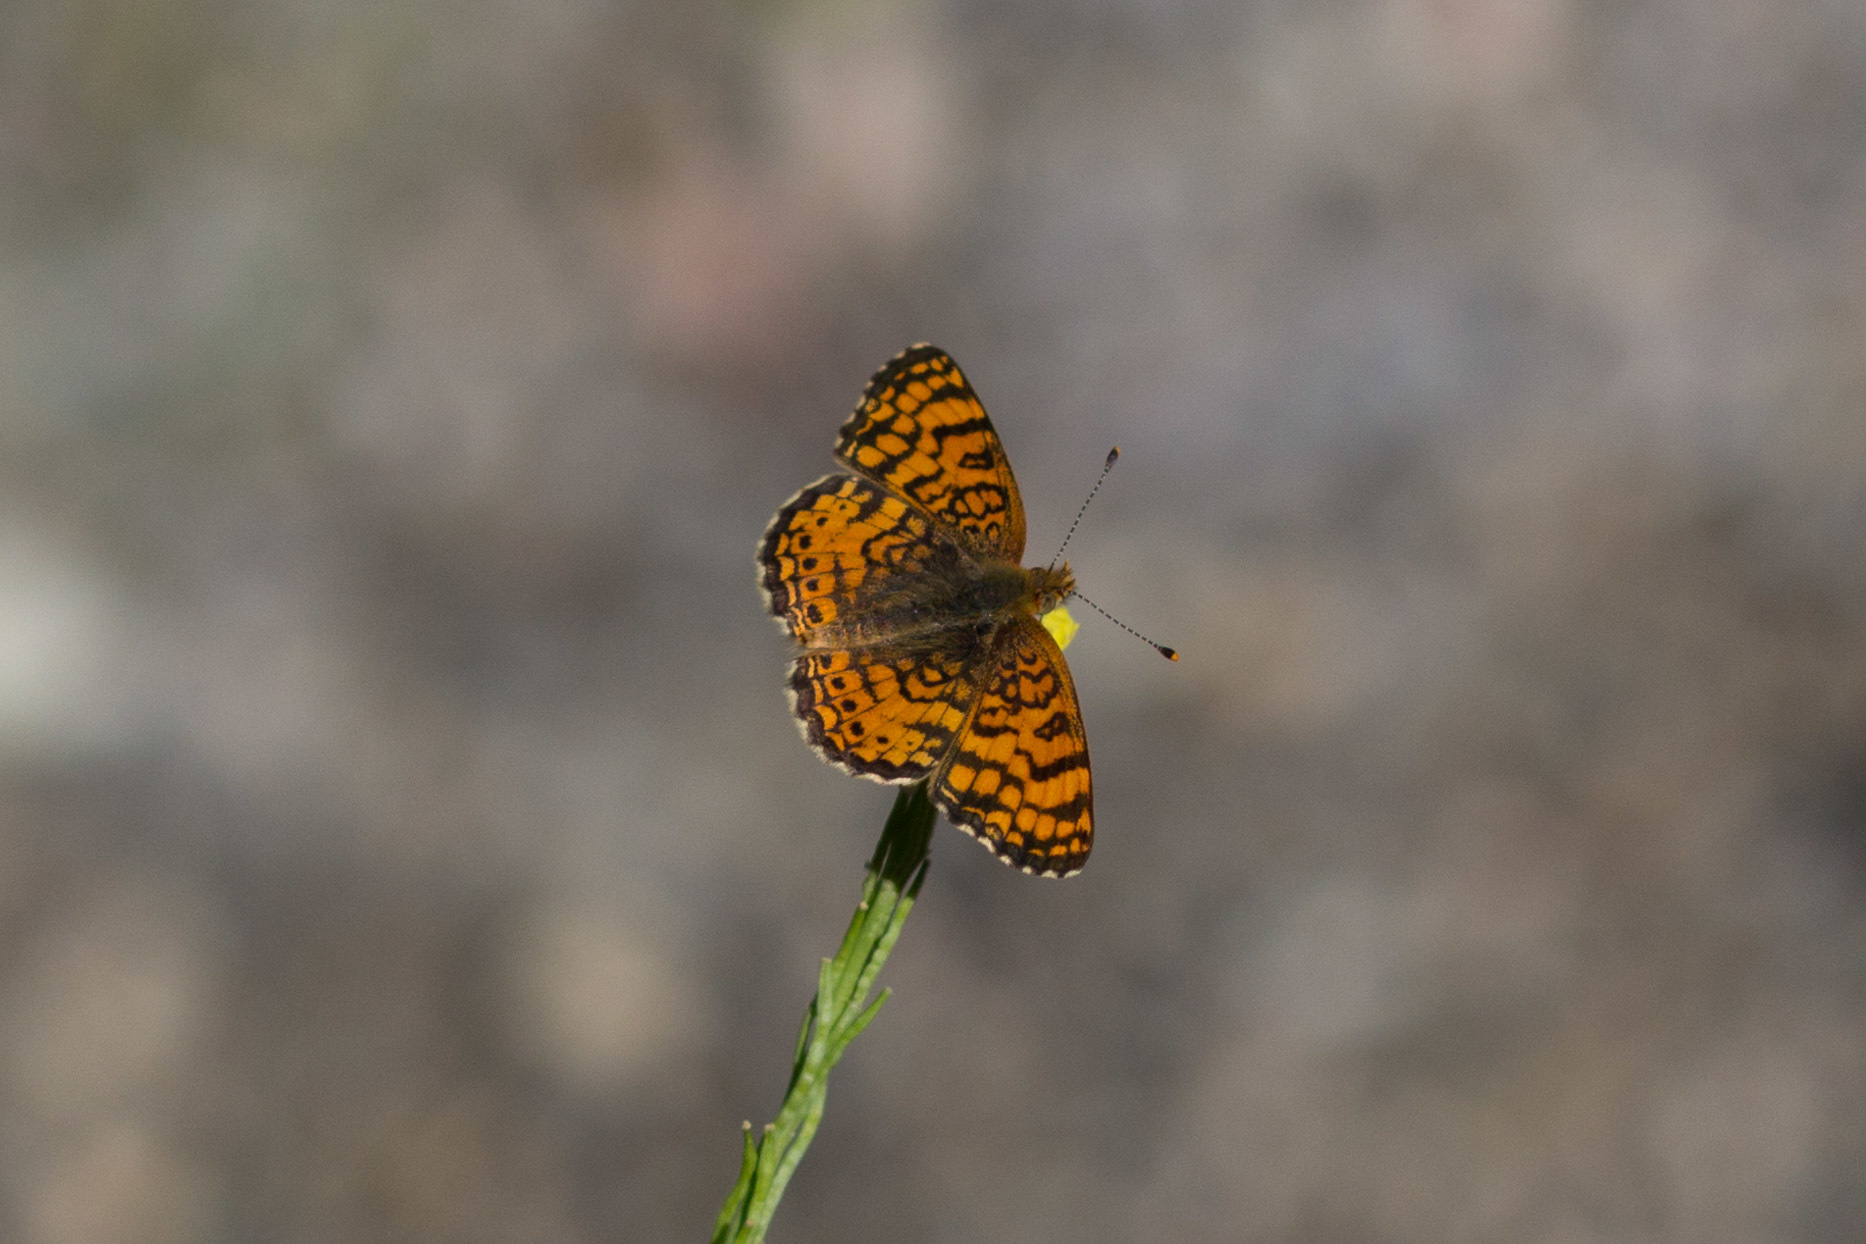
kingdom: Animalia
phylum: Arthropoda
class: Insecta
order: Lepidoptera
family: Nymphalidae
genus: Eresia
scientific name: Eresia aveyrona
